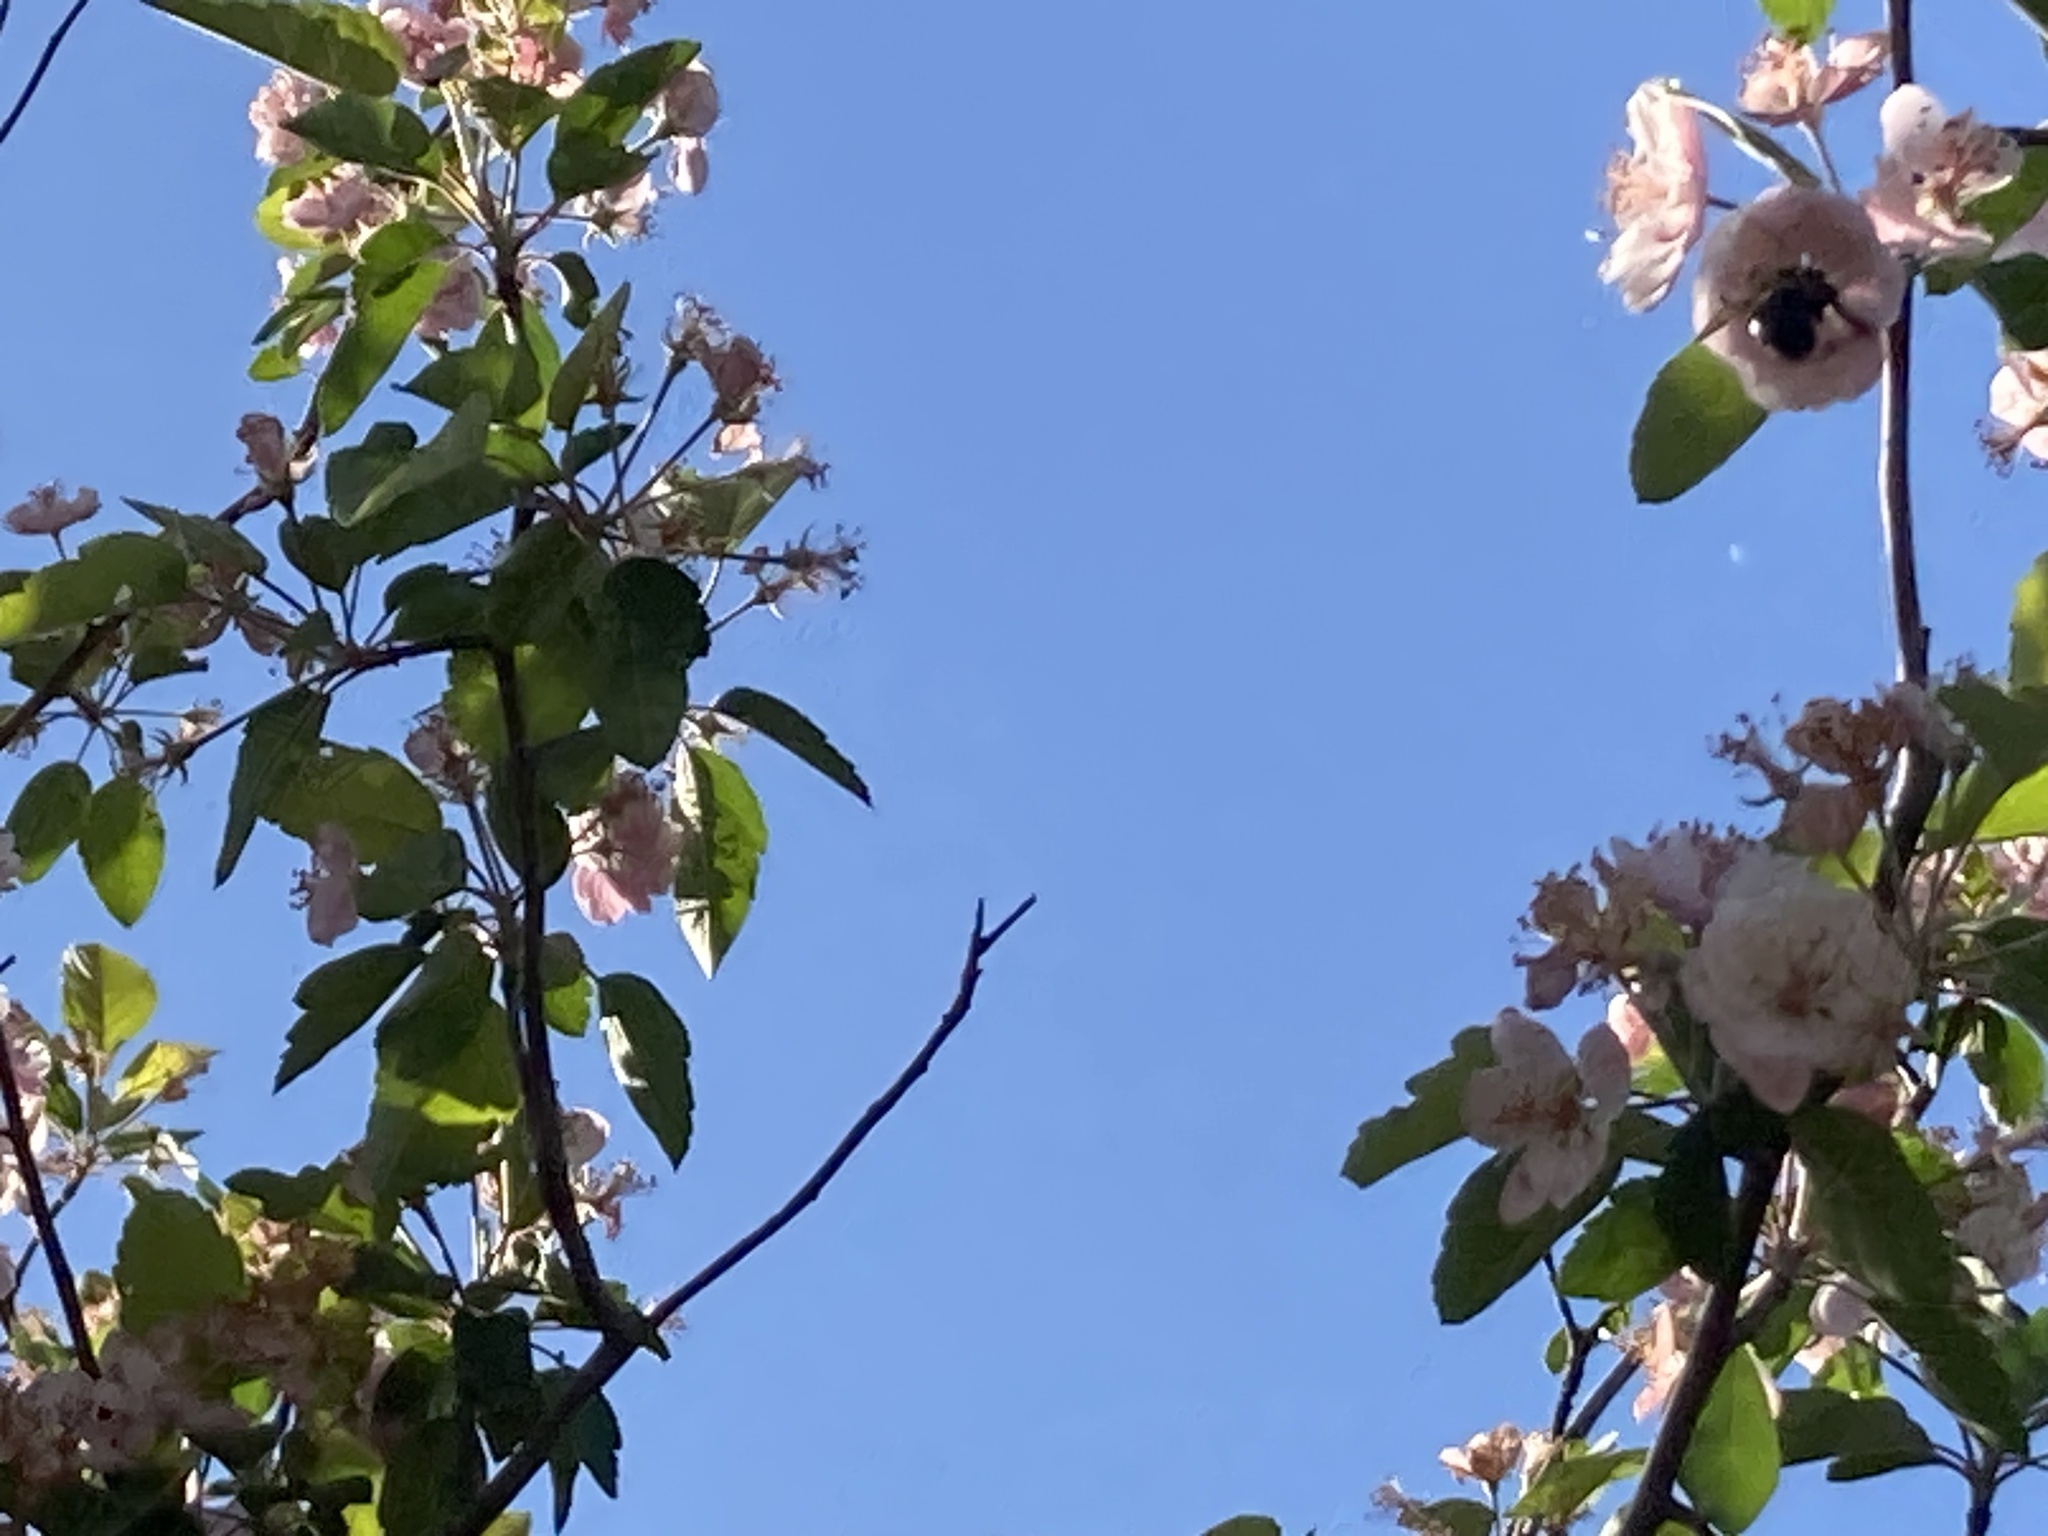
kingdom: Animalia
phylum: Arthropoda
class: Insecta
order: Hymenoptera
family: Apidae
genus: Xylocopa
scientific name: Xylocopa virginica
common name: Carpenter bee
